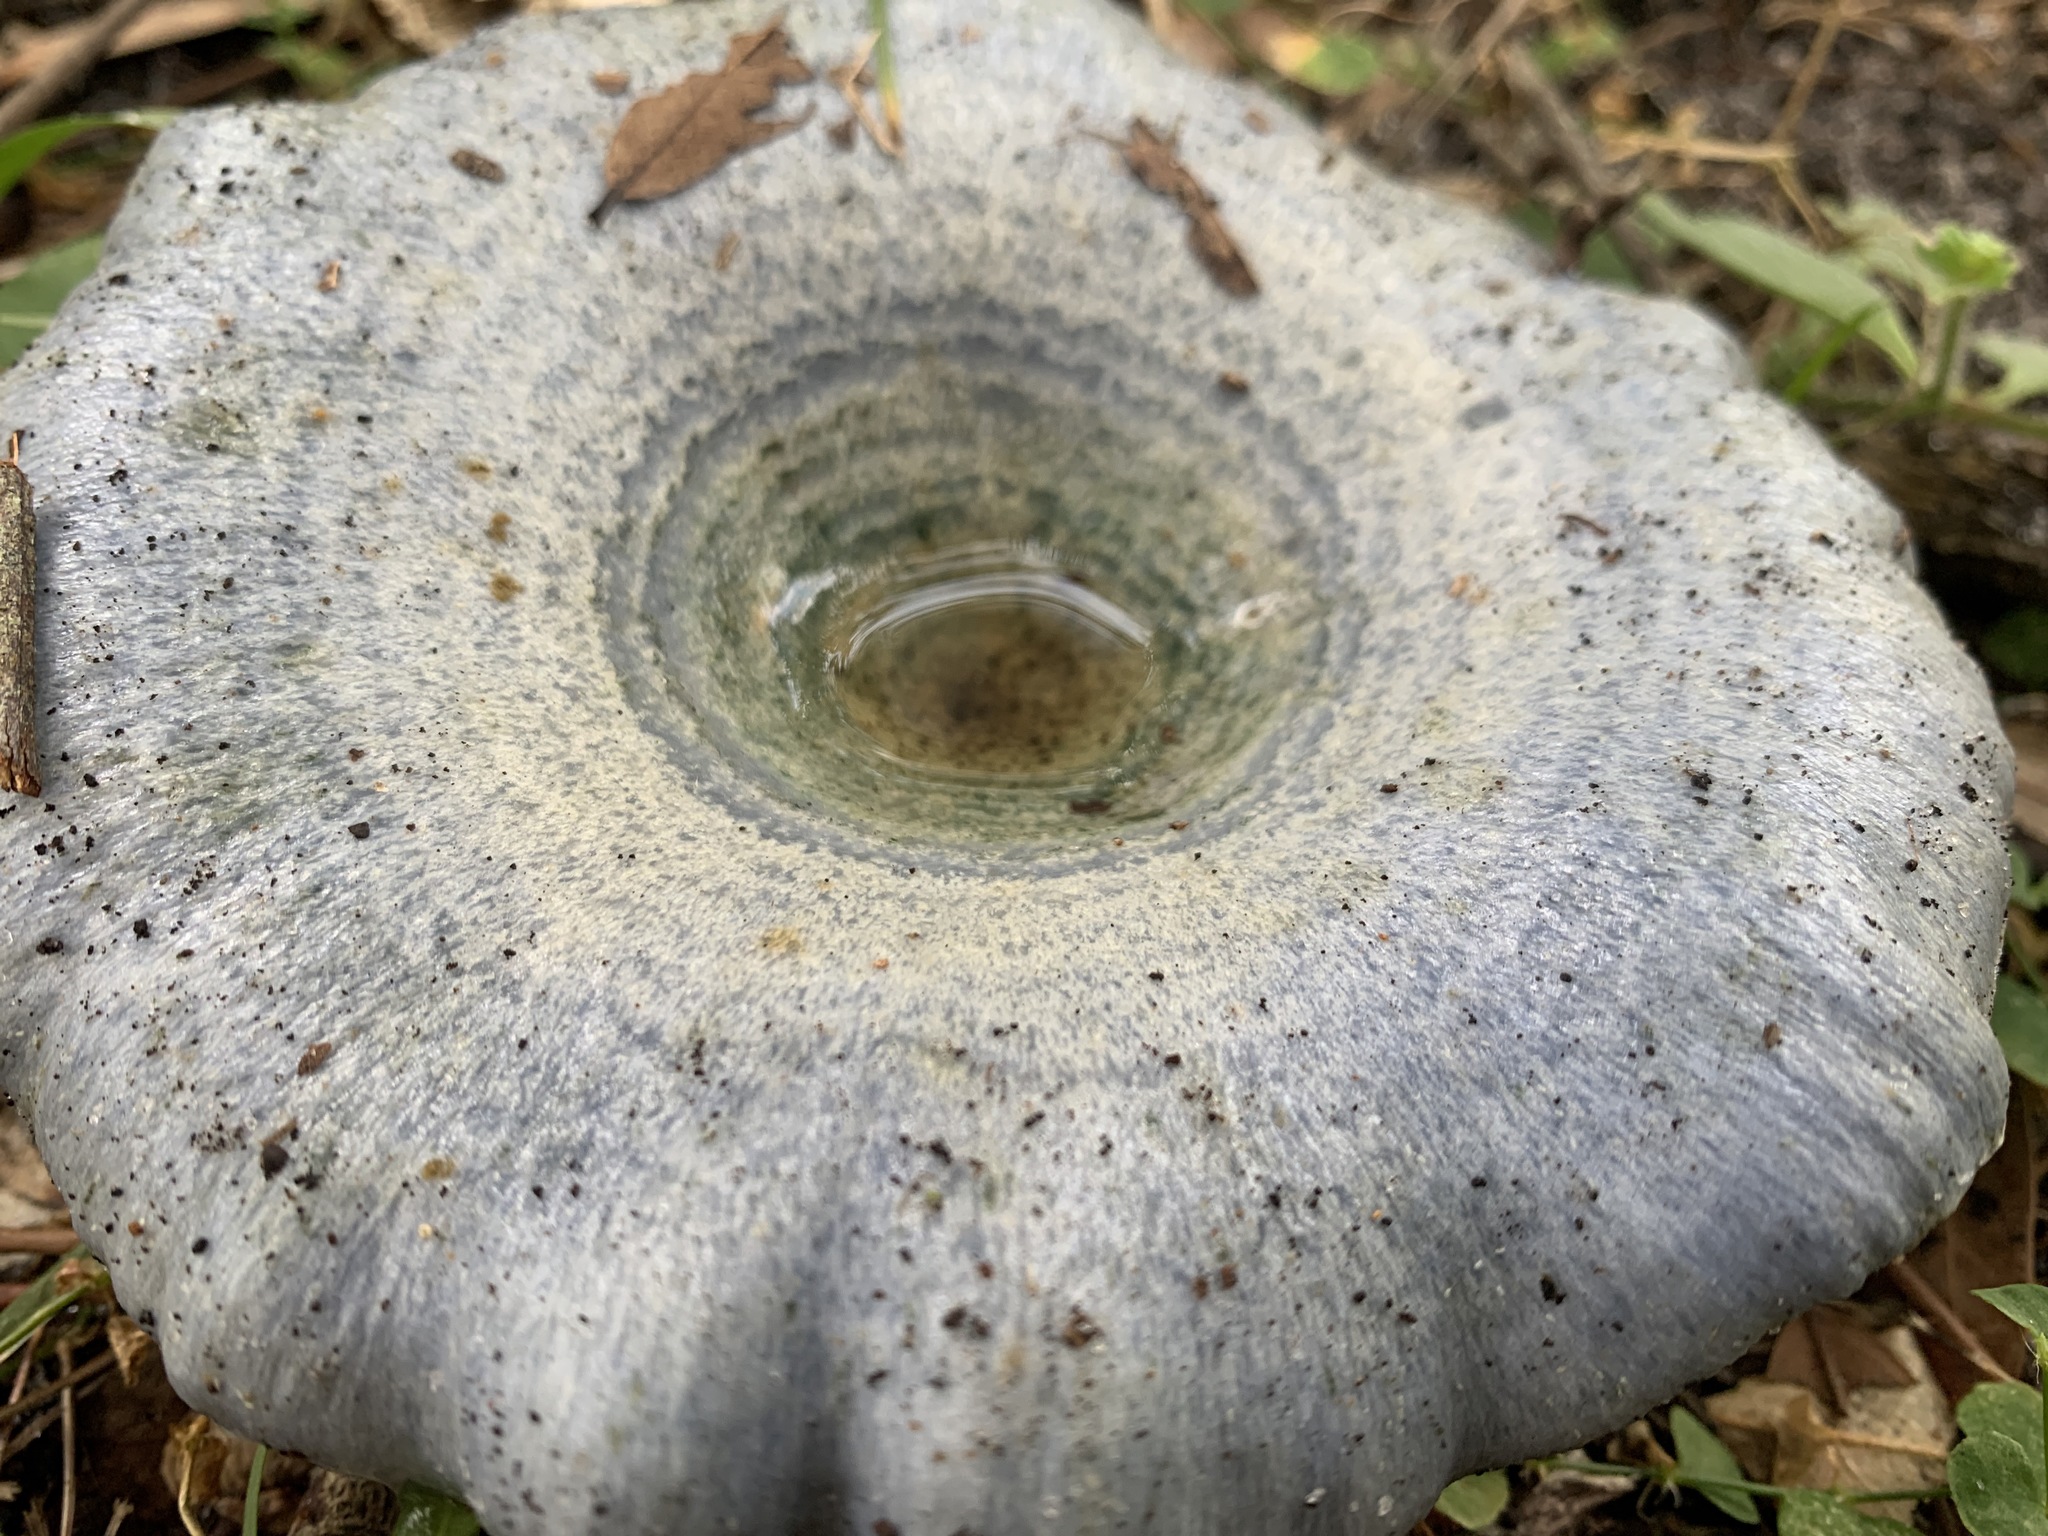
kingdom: Fungi
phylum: Basidiomycota
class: Agaricomycetes
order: Russulales
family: Russulaceae
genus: Lactarius
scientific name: Lactarius indigo
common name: Indigo milk cap
